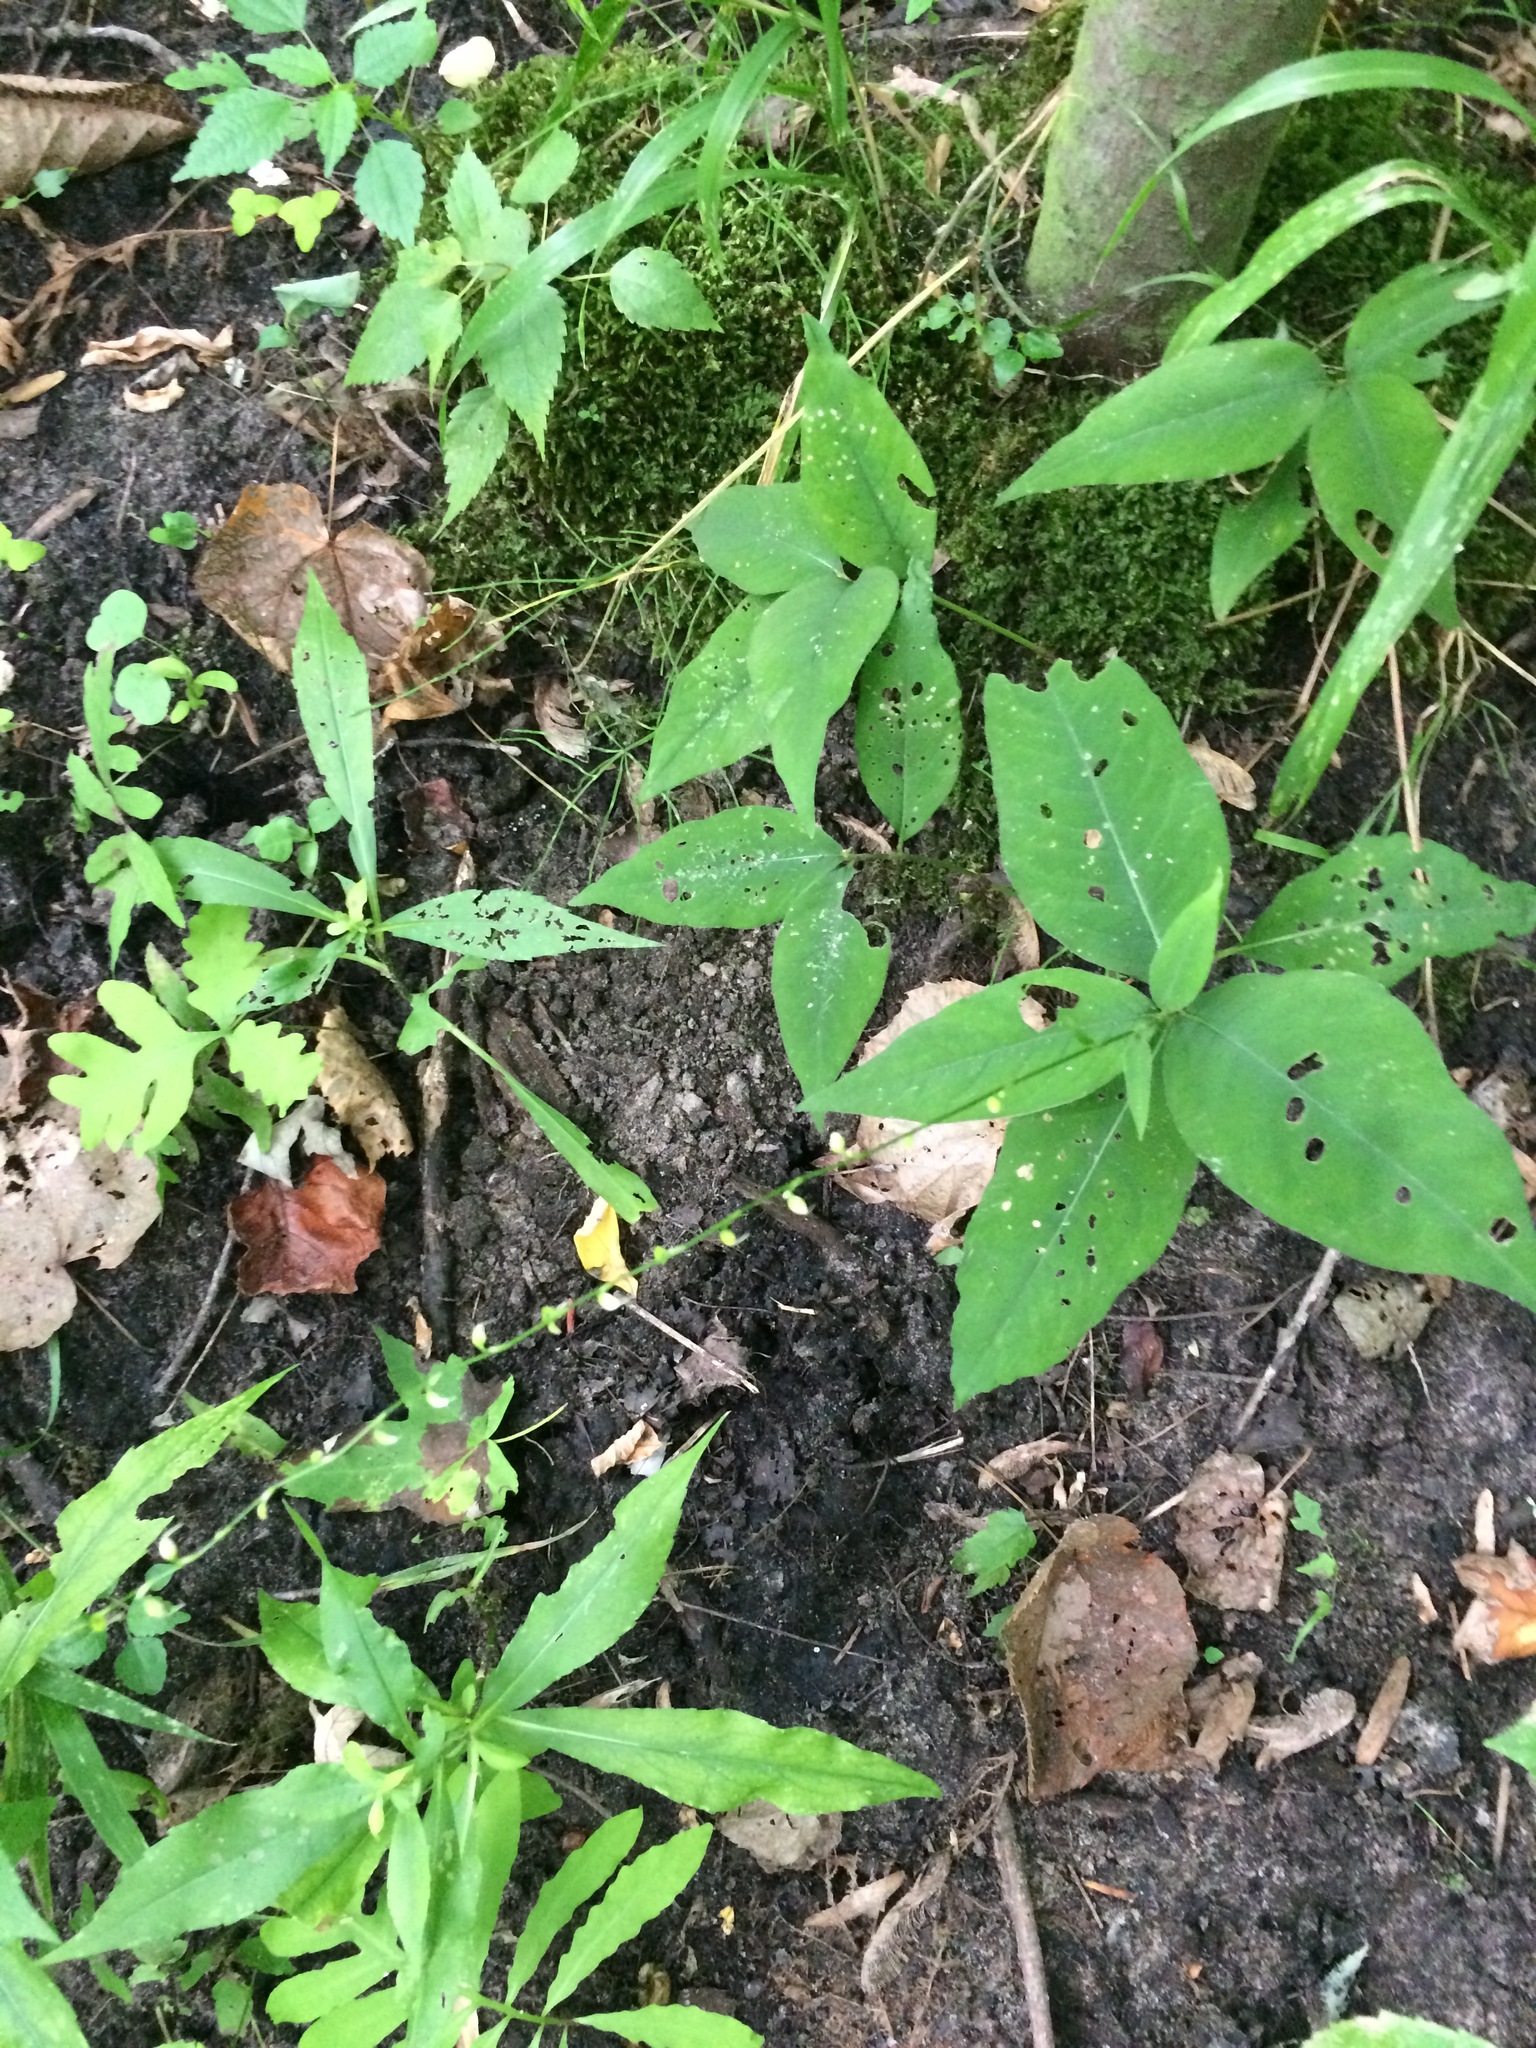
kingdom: Plantae
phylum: Tracheophyta
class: Magnoliopsida
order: Caryophyllales
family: Polygonaceae
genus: Persicaria
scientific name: Persicaria virginiana
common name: Jumpseed
